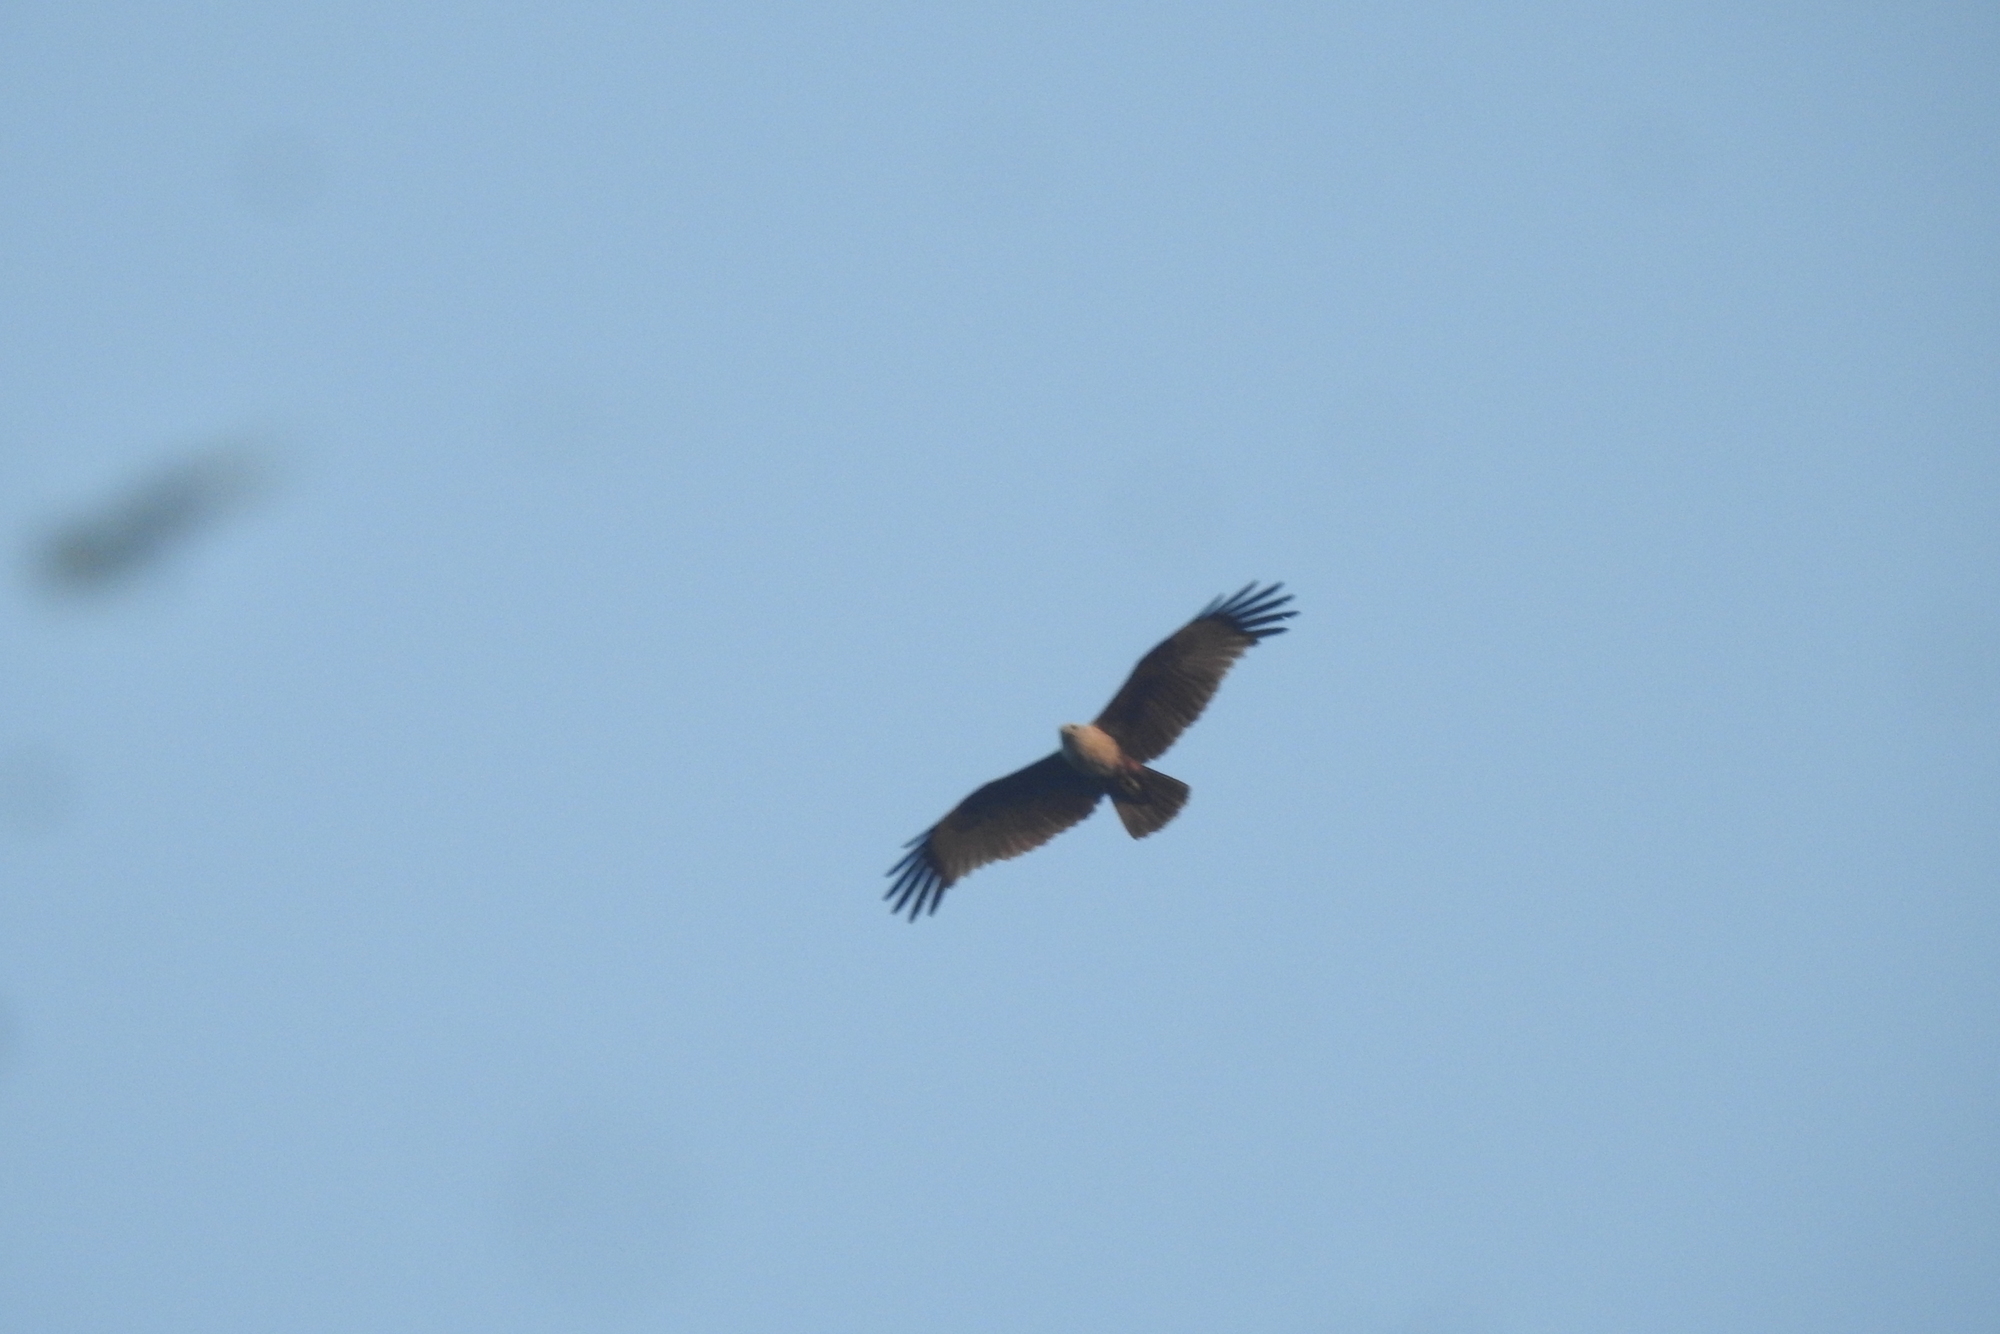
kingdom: Animalia
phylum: Chordata
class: Aves
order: Accipitriformes
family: Accipitridae
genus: Haliastur
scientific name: Haliastur indus
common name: Brahminy kite
